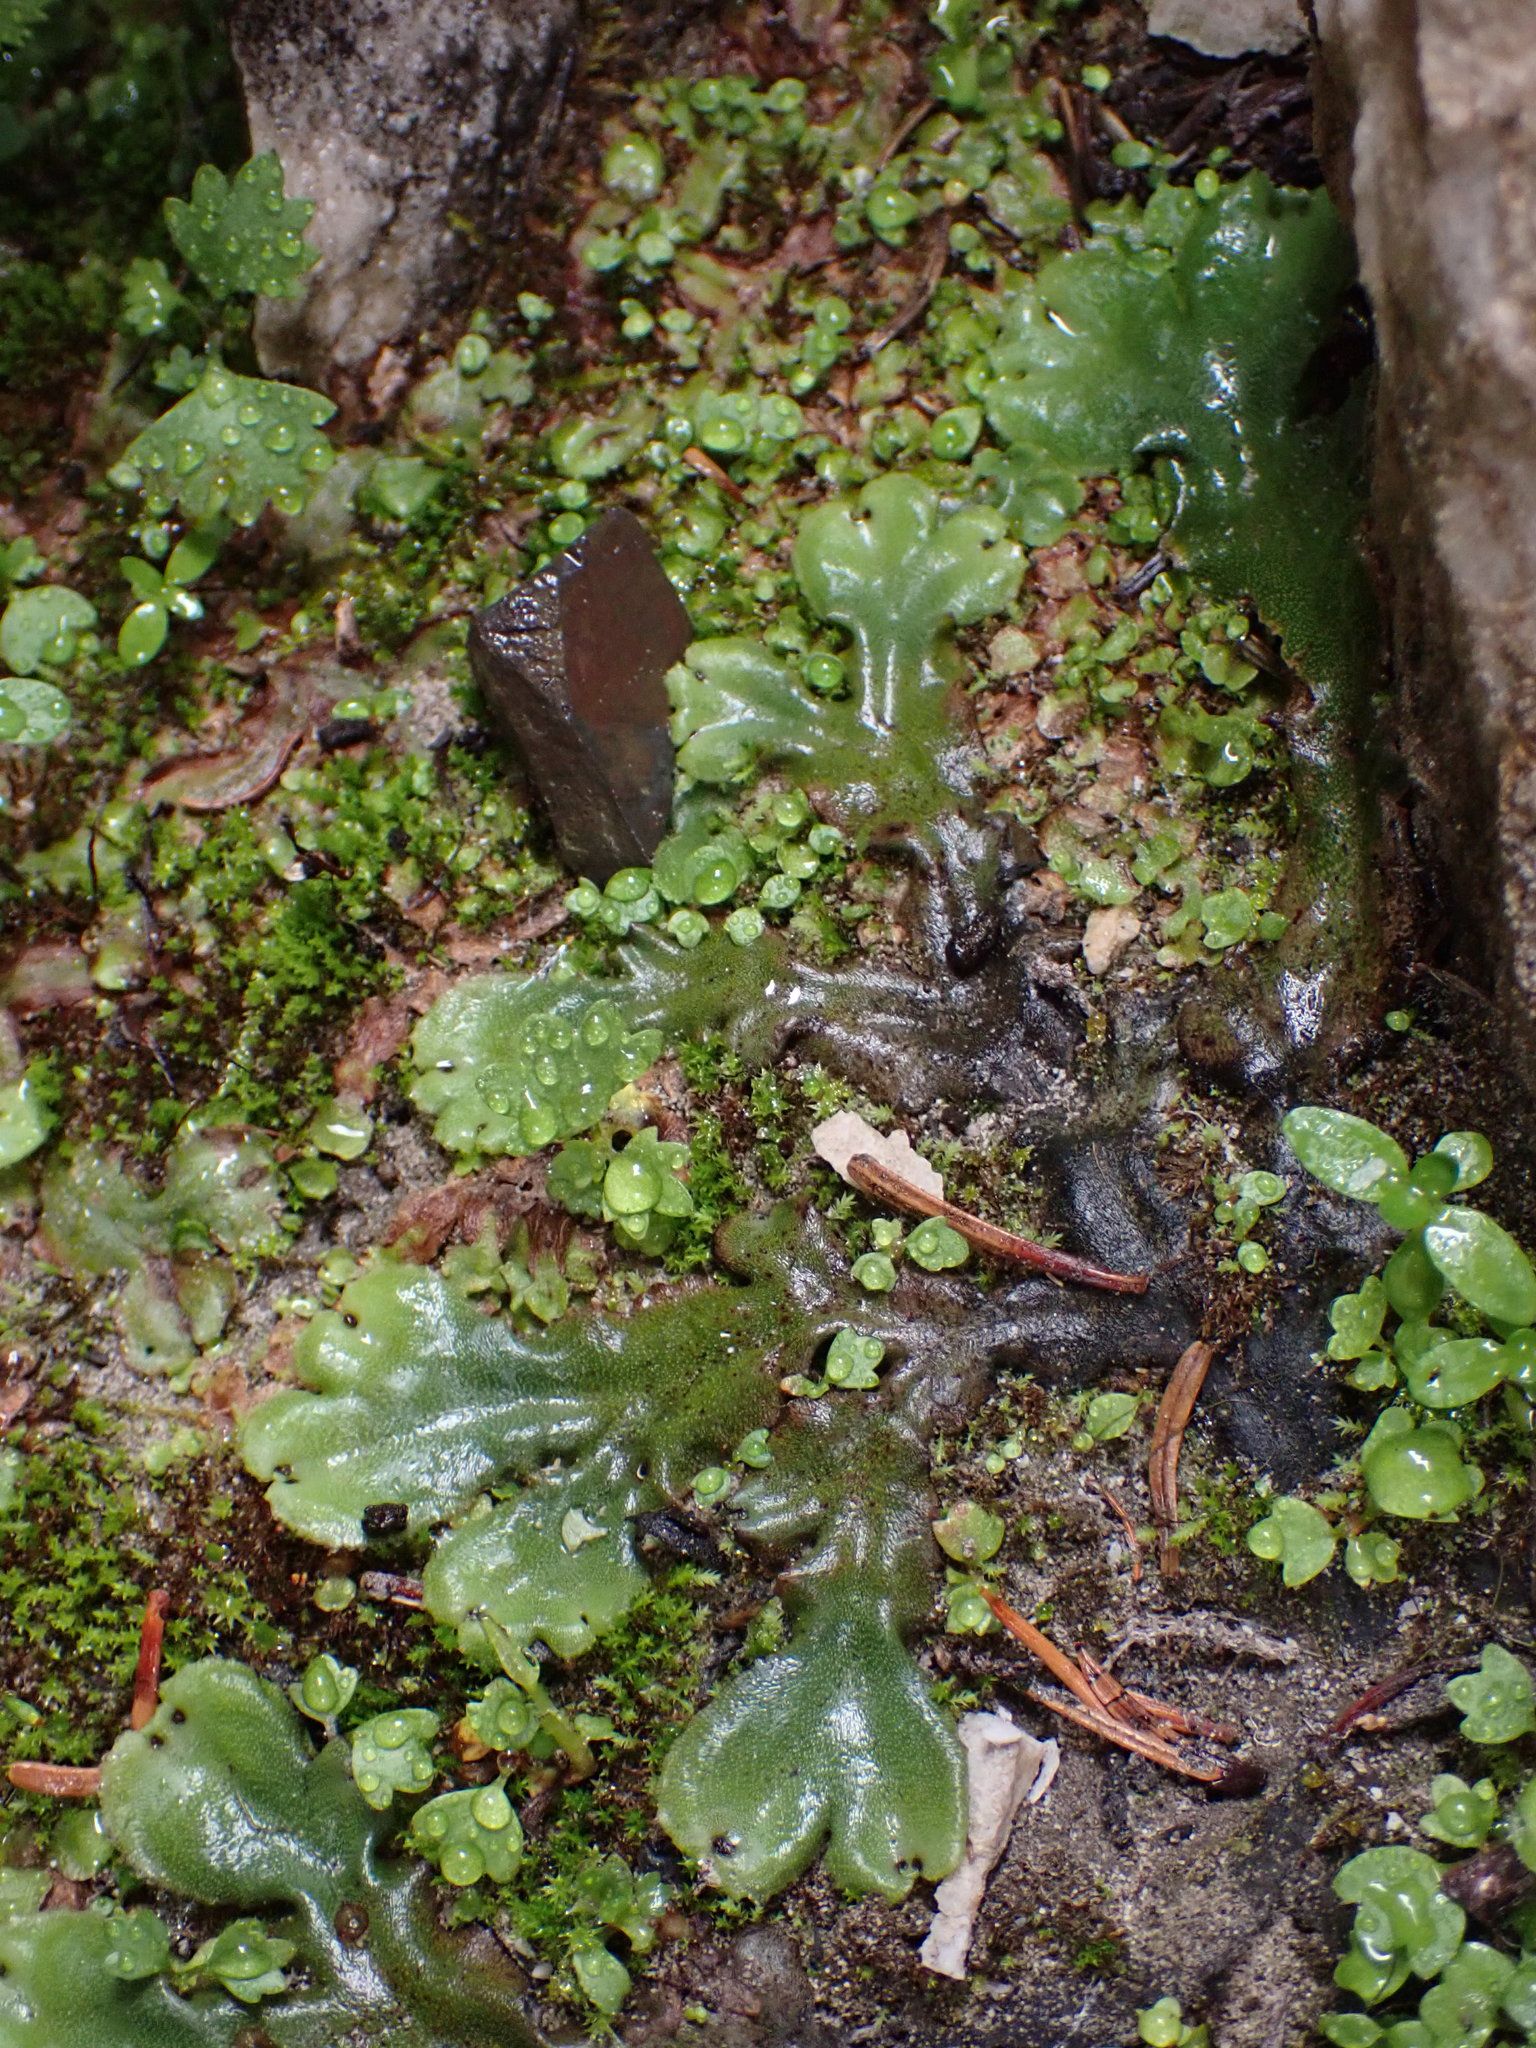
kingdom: Plantae
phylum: Marchantiophyta
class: Marchantiopsida
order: Marchantiales
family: Marchantiaceae
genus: Marchantia
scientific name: Marchantia polymorpha
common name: Common liverwort
